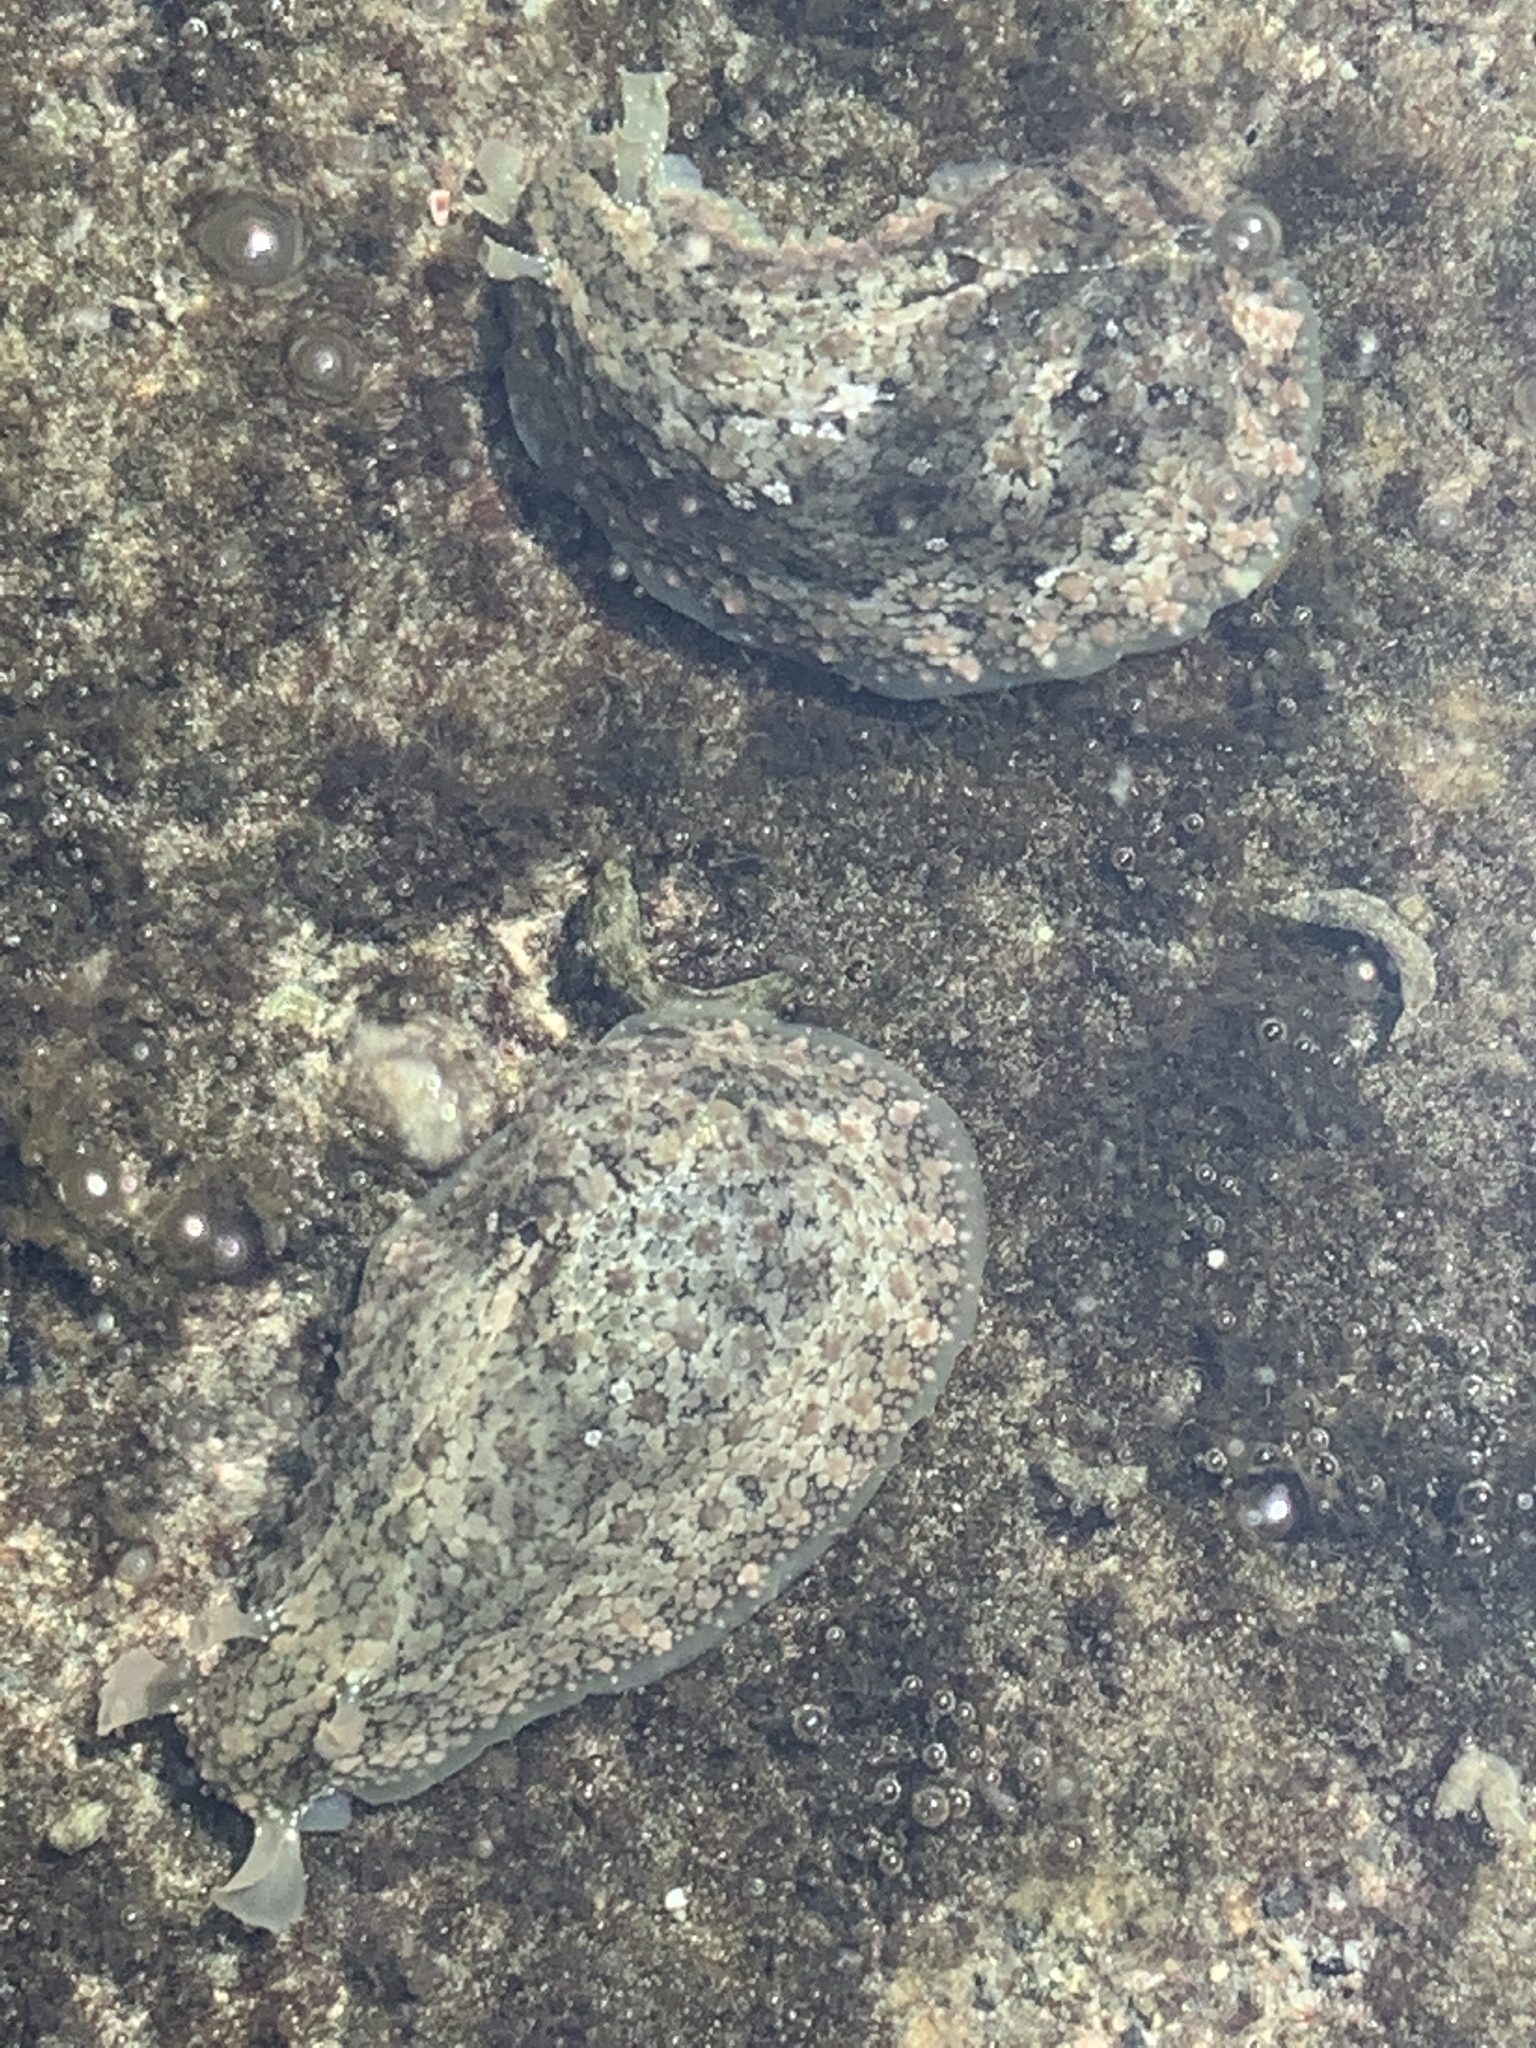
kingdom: Animalia
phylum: Mollusca
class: Gastropoda
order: Aplysiida
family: Aplysiidae
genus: Dolabrifera
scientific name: Dolabrifera nicaraguana
